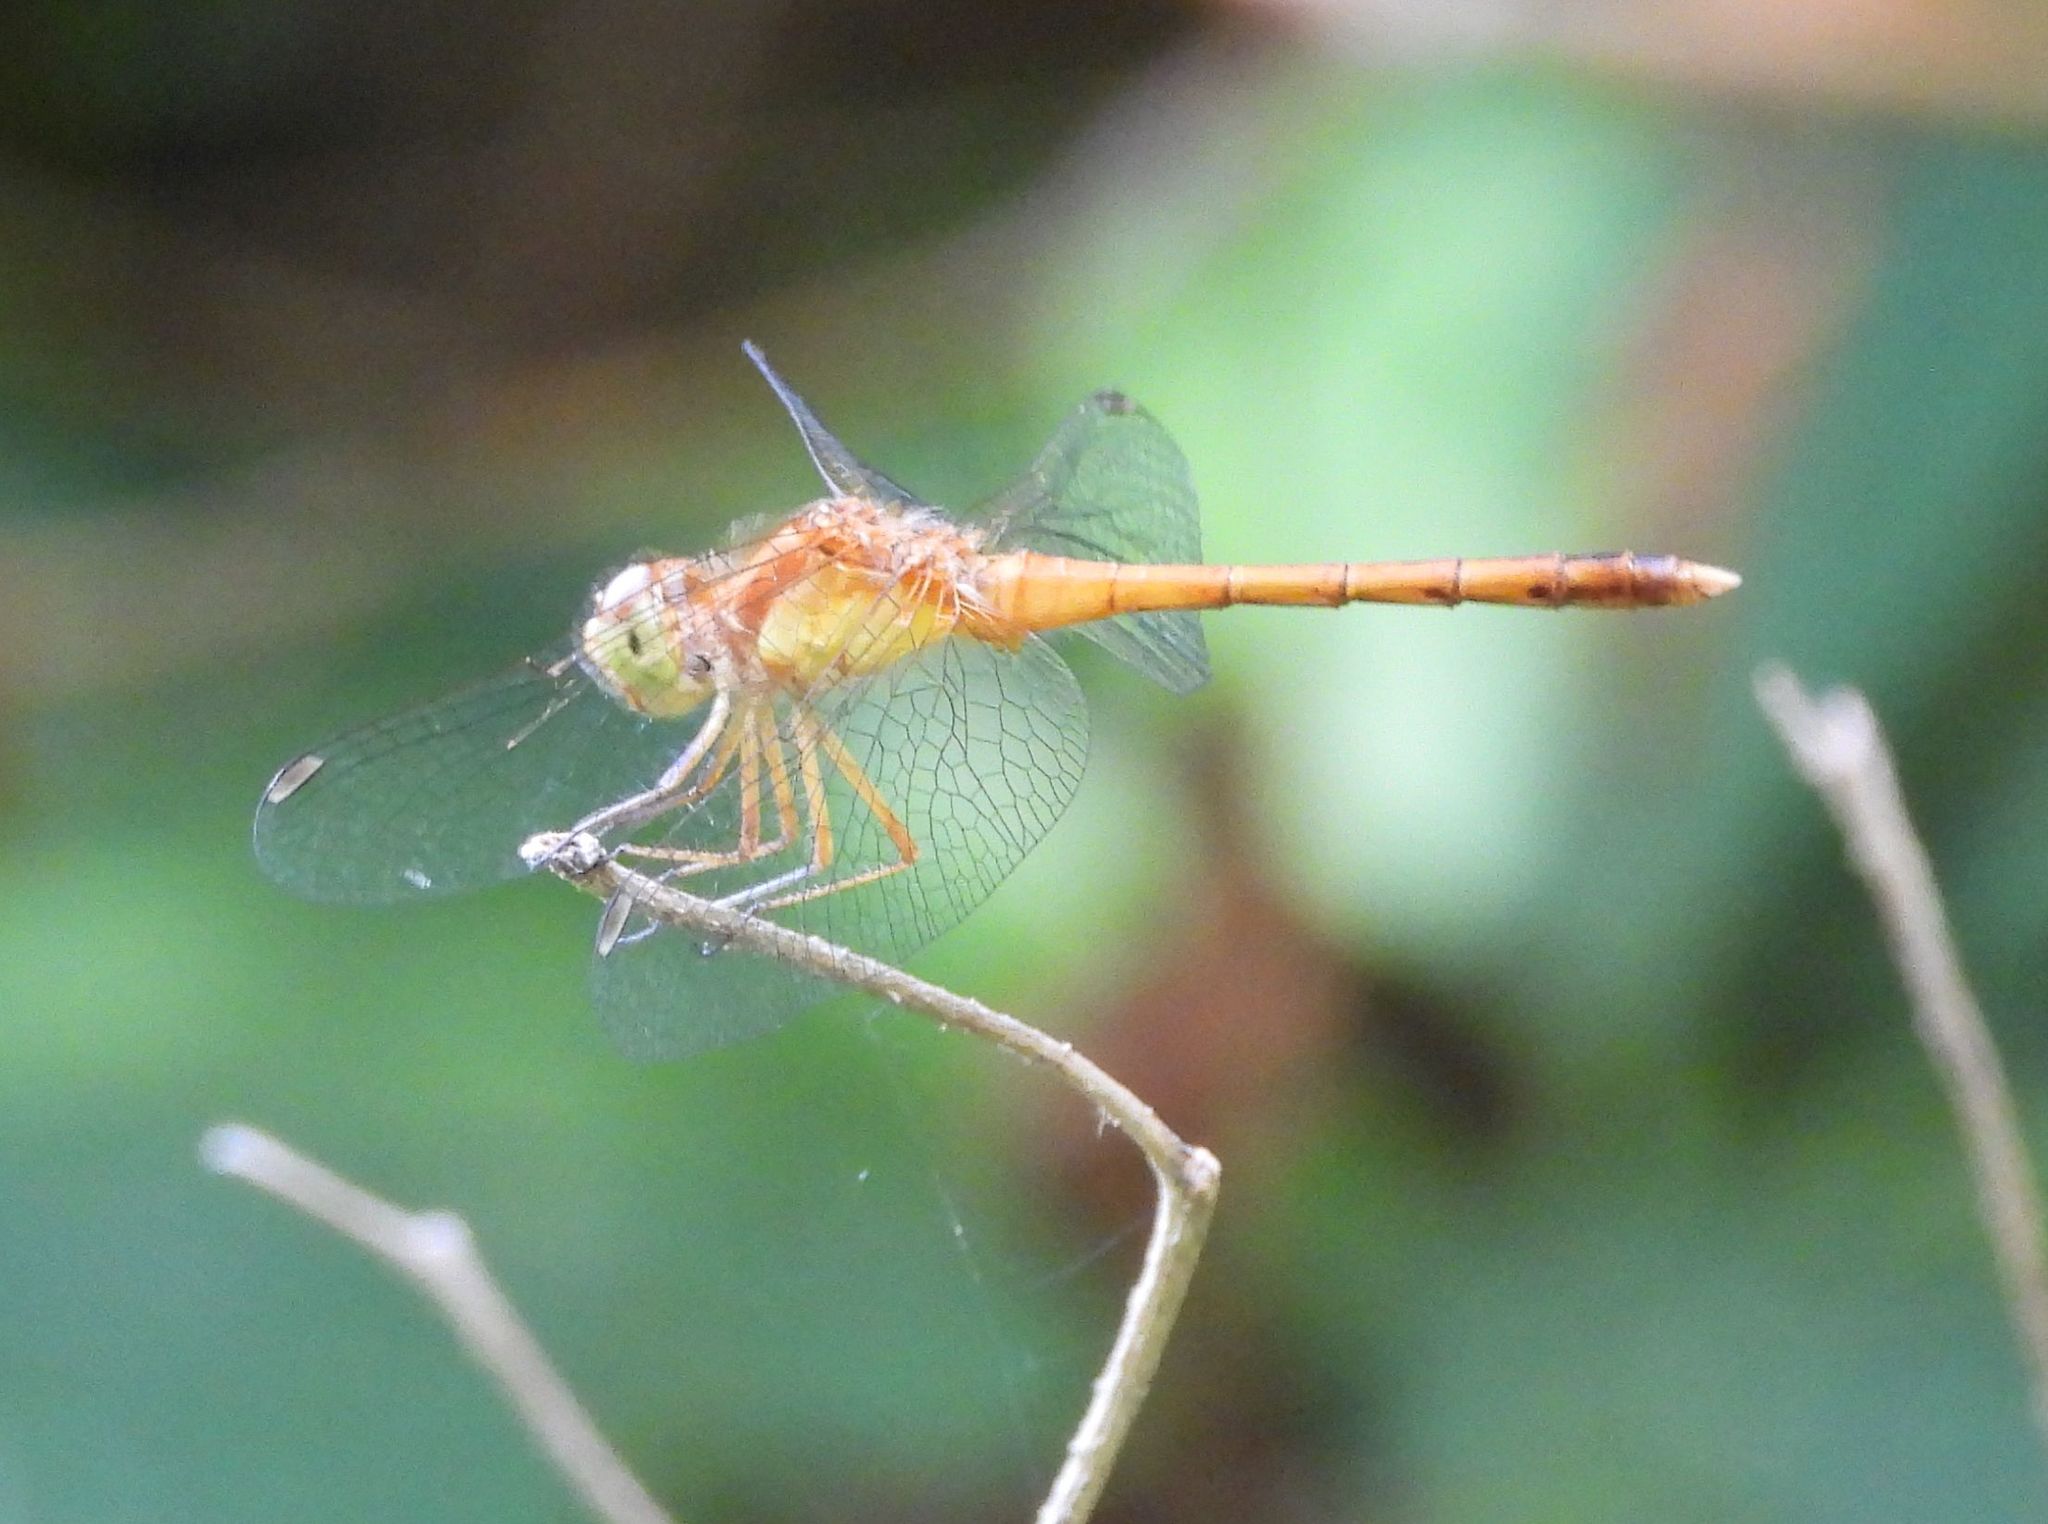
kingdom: Animalia
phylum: Arthropoda
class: Insecta
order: Odonata
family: Libellulidae
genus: Sympetrum
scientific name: Sympetrum vicinum
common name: Autumn meadowhawk
